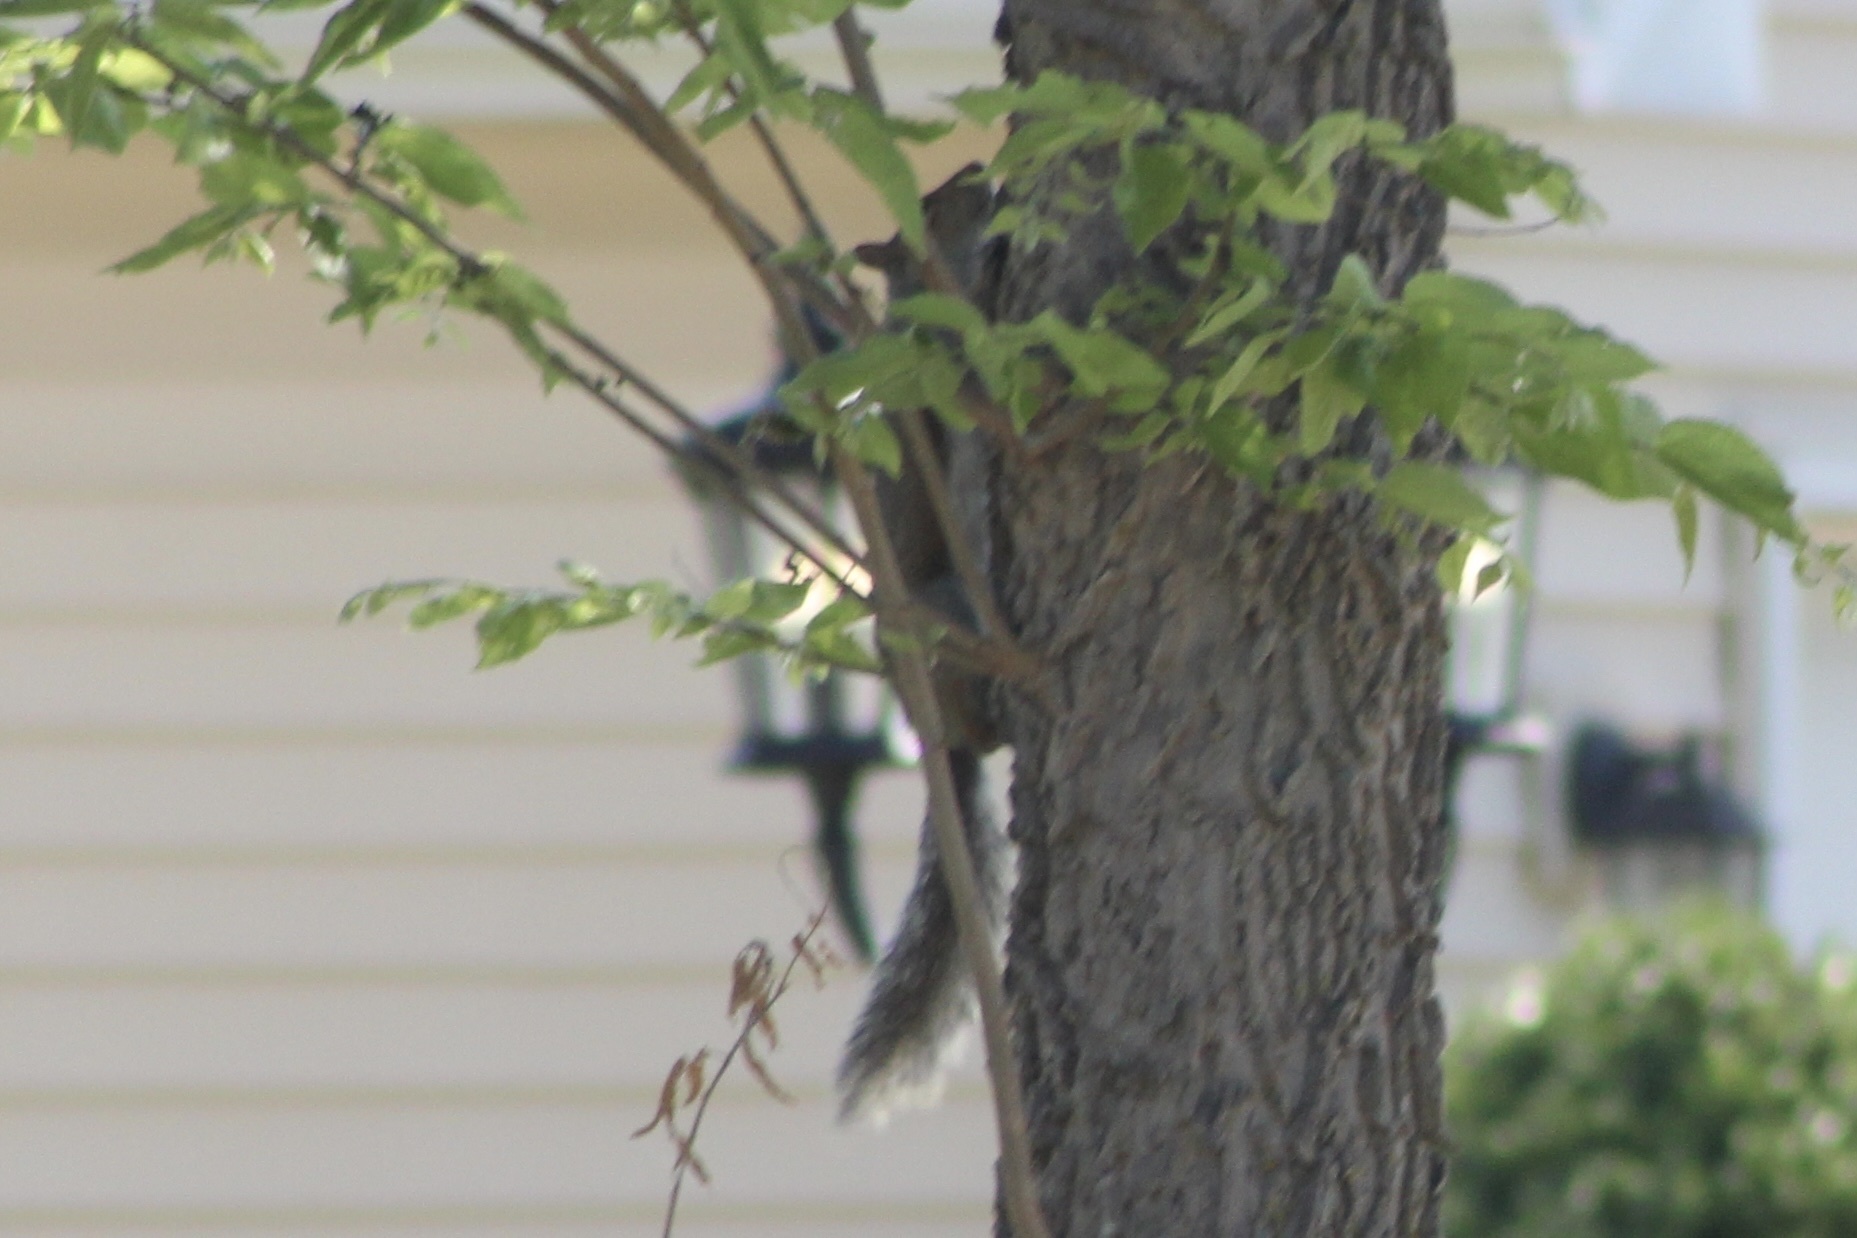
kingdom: Animalia
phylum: Chordata
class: Mammalia
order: Rodentia
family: Sciuridae
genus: Sciurus
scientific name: Sciurus carolinensis
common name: Eastern gray squirrel
